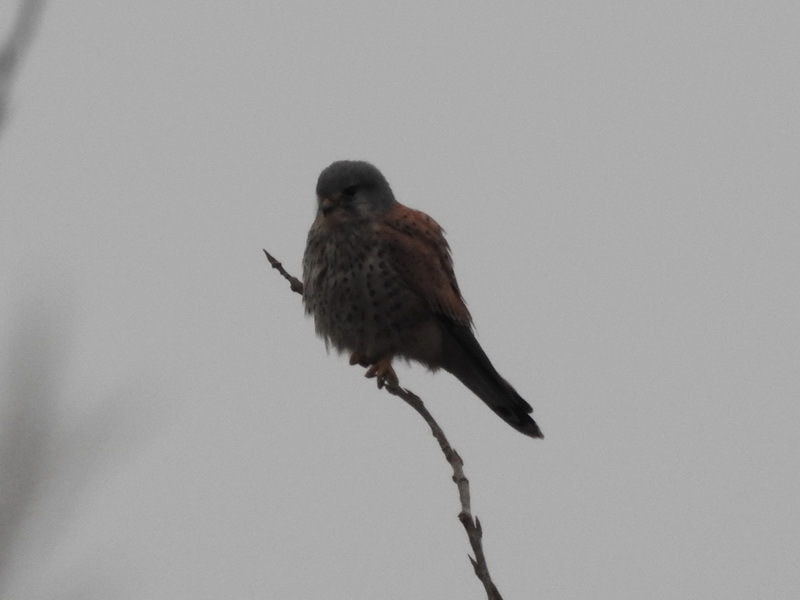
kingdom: Animalia
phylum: Chordata
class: Aves
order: Falconiformes
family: Falconidae
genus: Falco
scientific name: Falco tinnunculus
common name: Common kestrel
